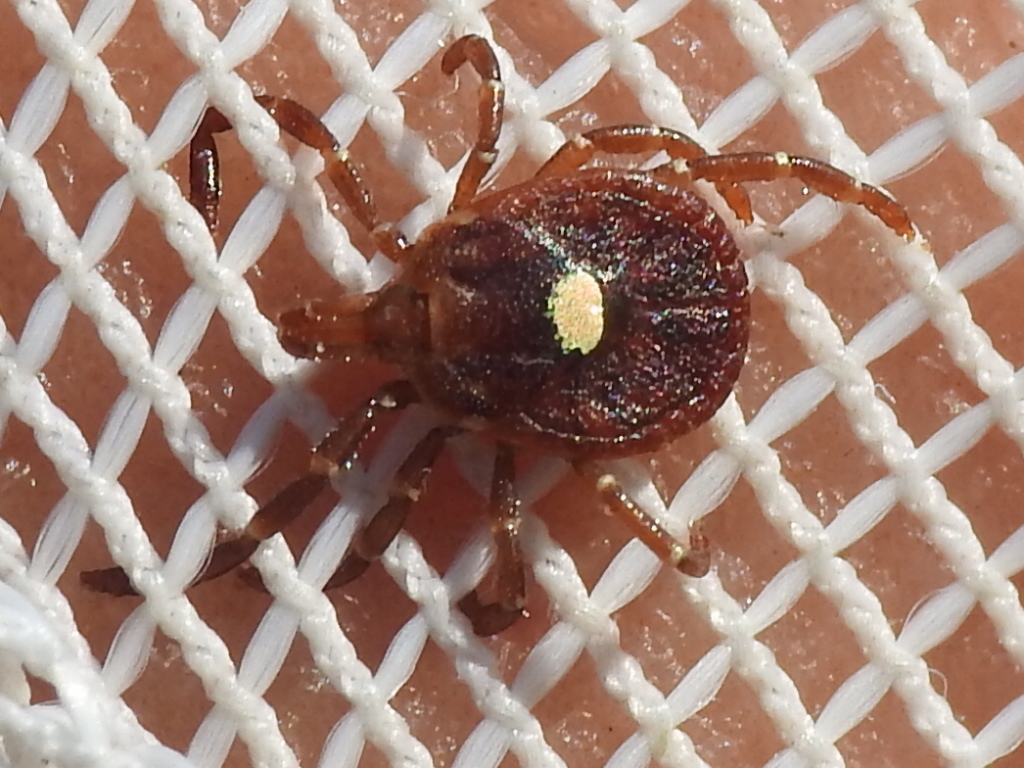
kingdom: Animalia
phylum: Arthropoda
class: Arachnida
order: Ixodida
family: Ixodidae
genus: Amblyomma
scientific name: Amblyomma americanum
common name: Lone star tick
